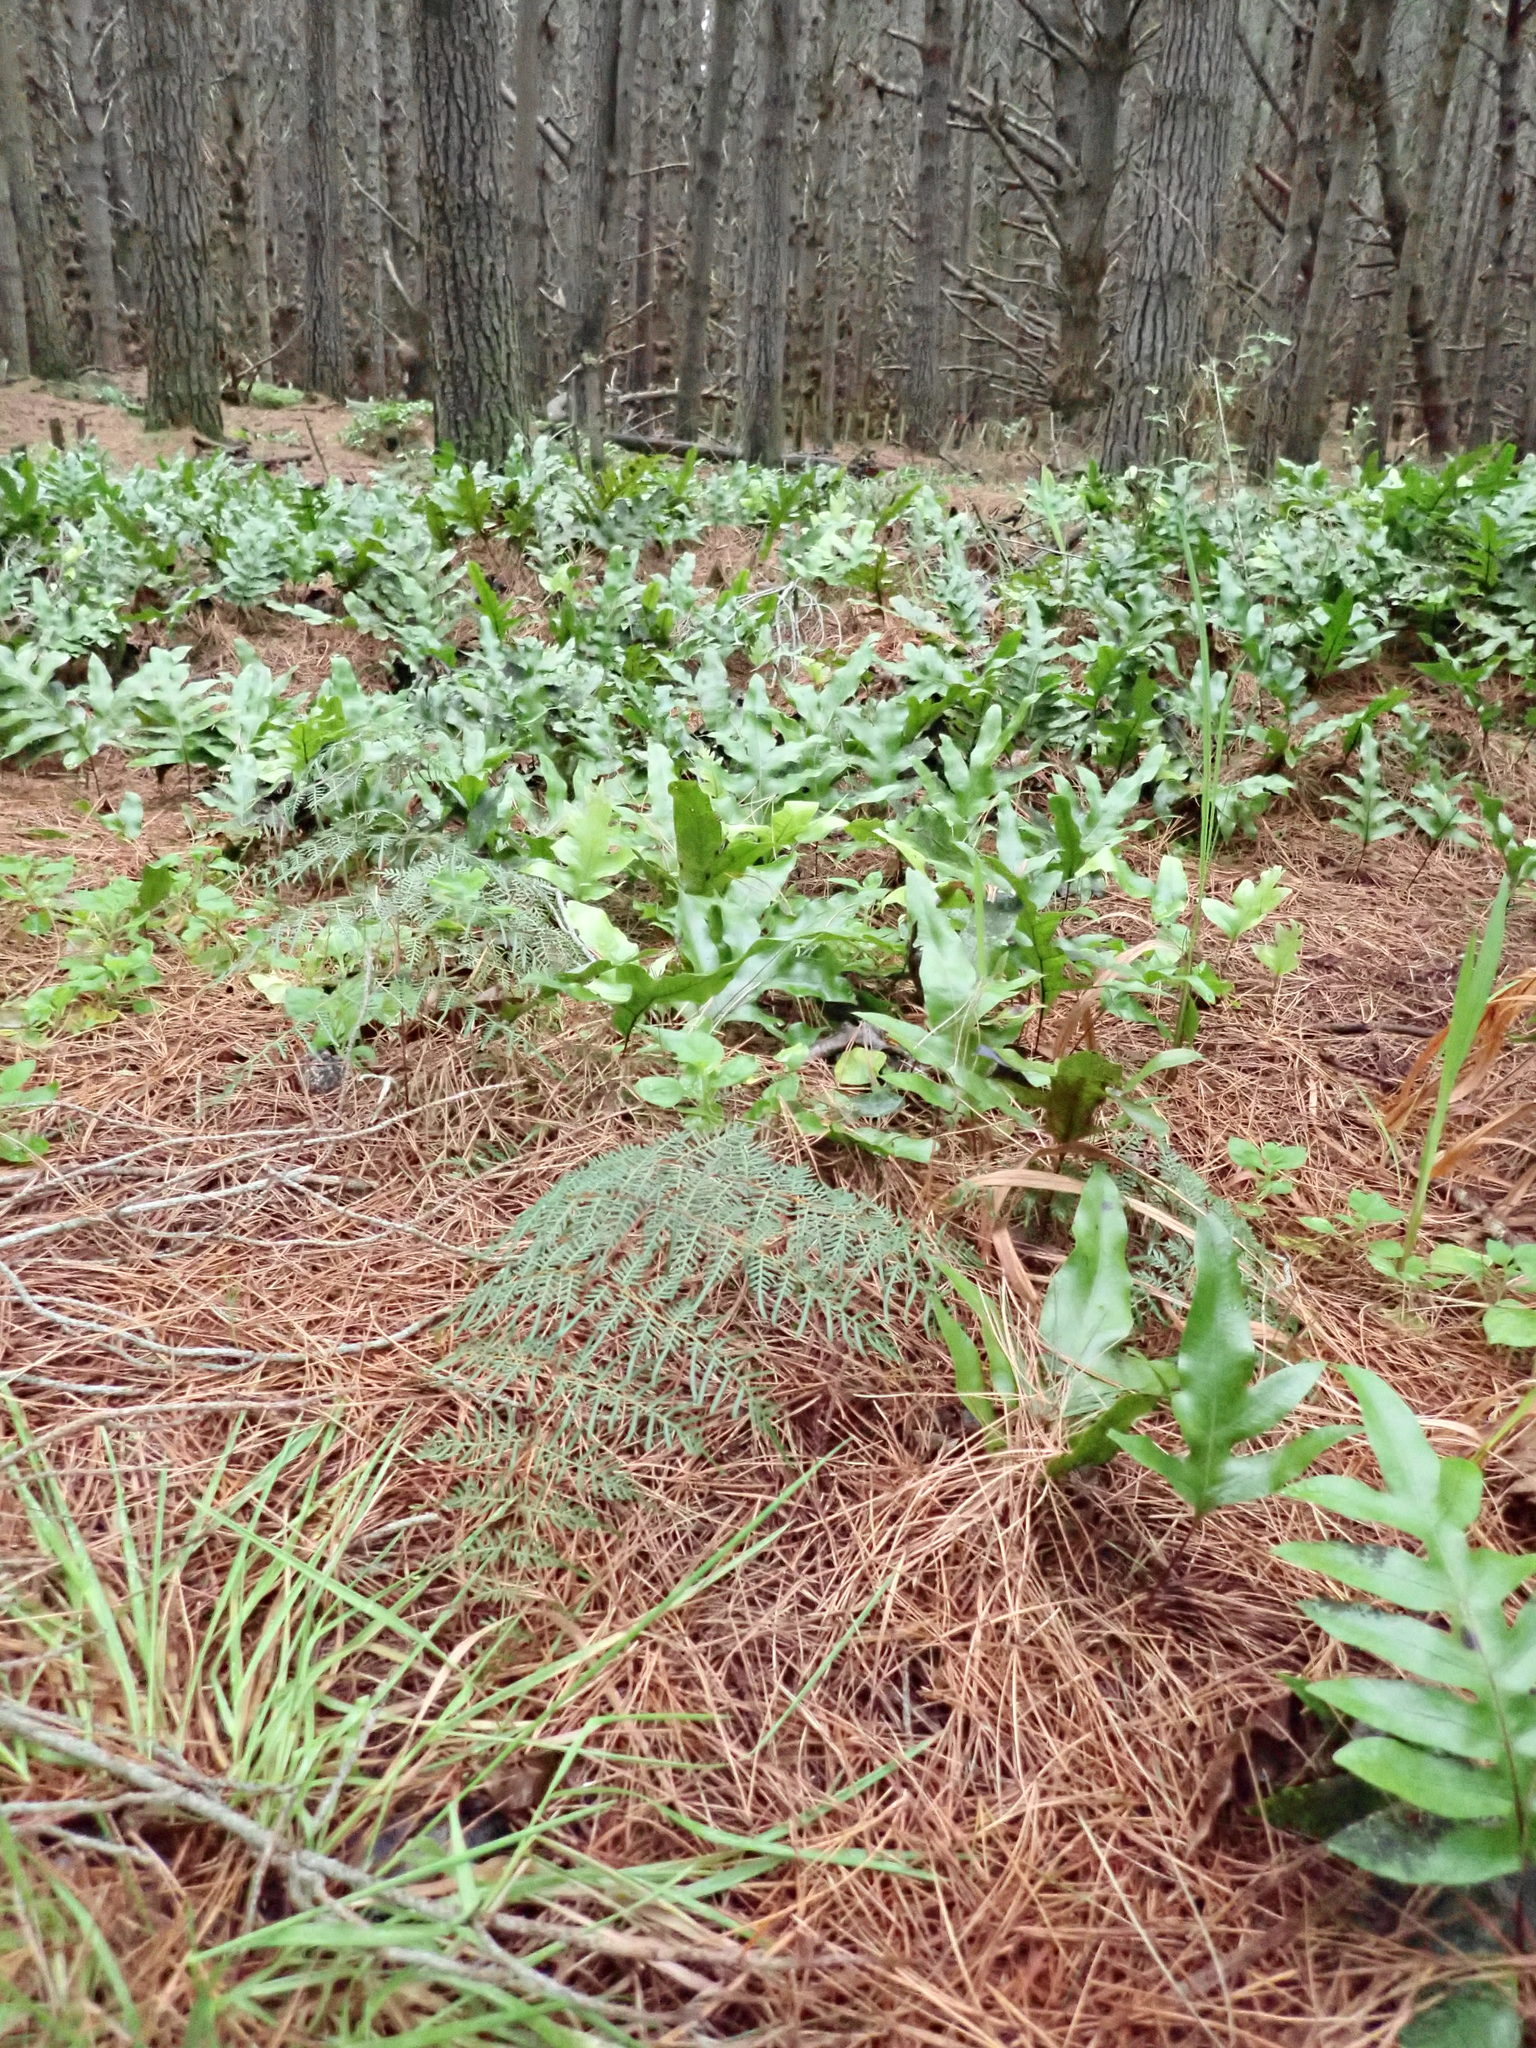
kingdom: Plantae
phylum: Tracheophyta
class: Polypodiopsida
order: Polypodiales
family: Dennstaedtiaceae
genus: Pteridium
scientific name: Pteridium esculentum
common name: Bracken fern
